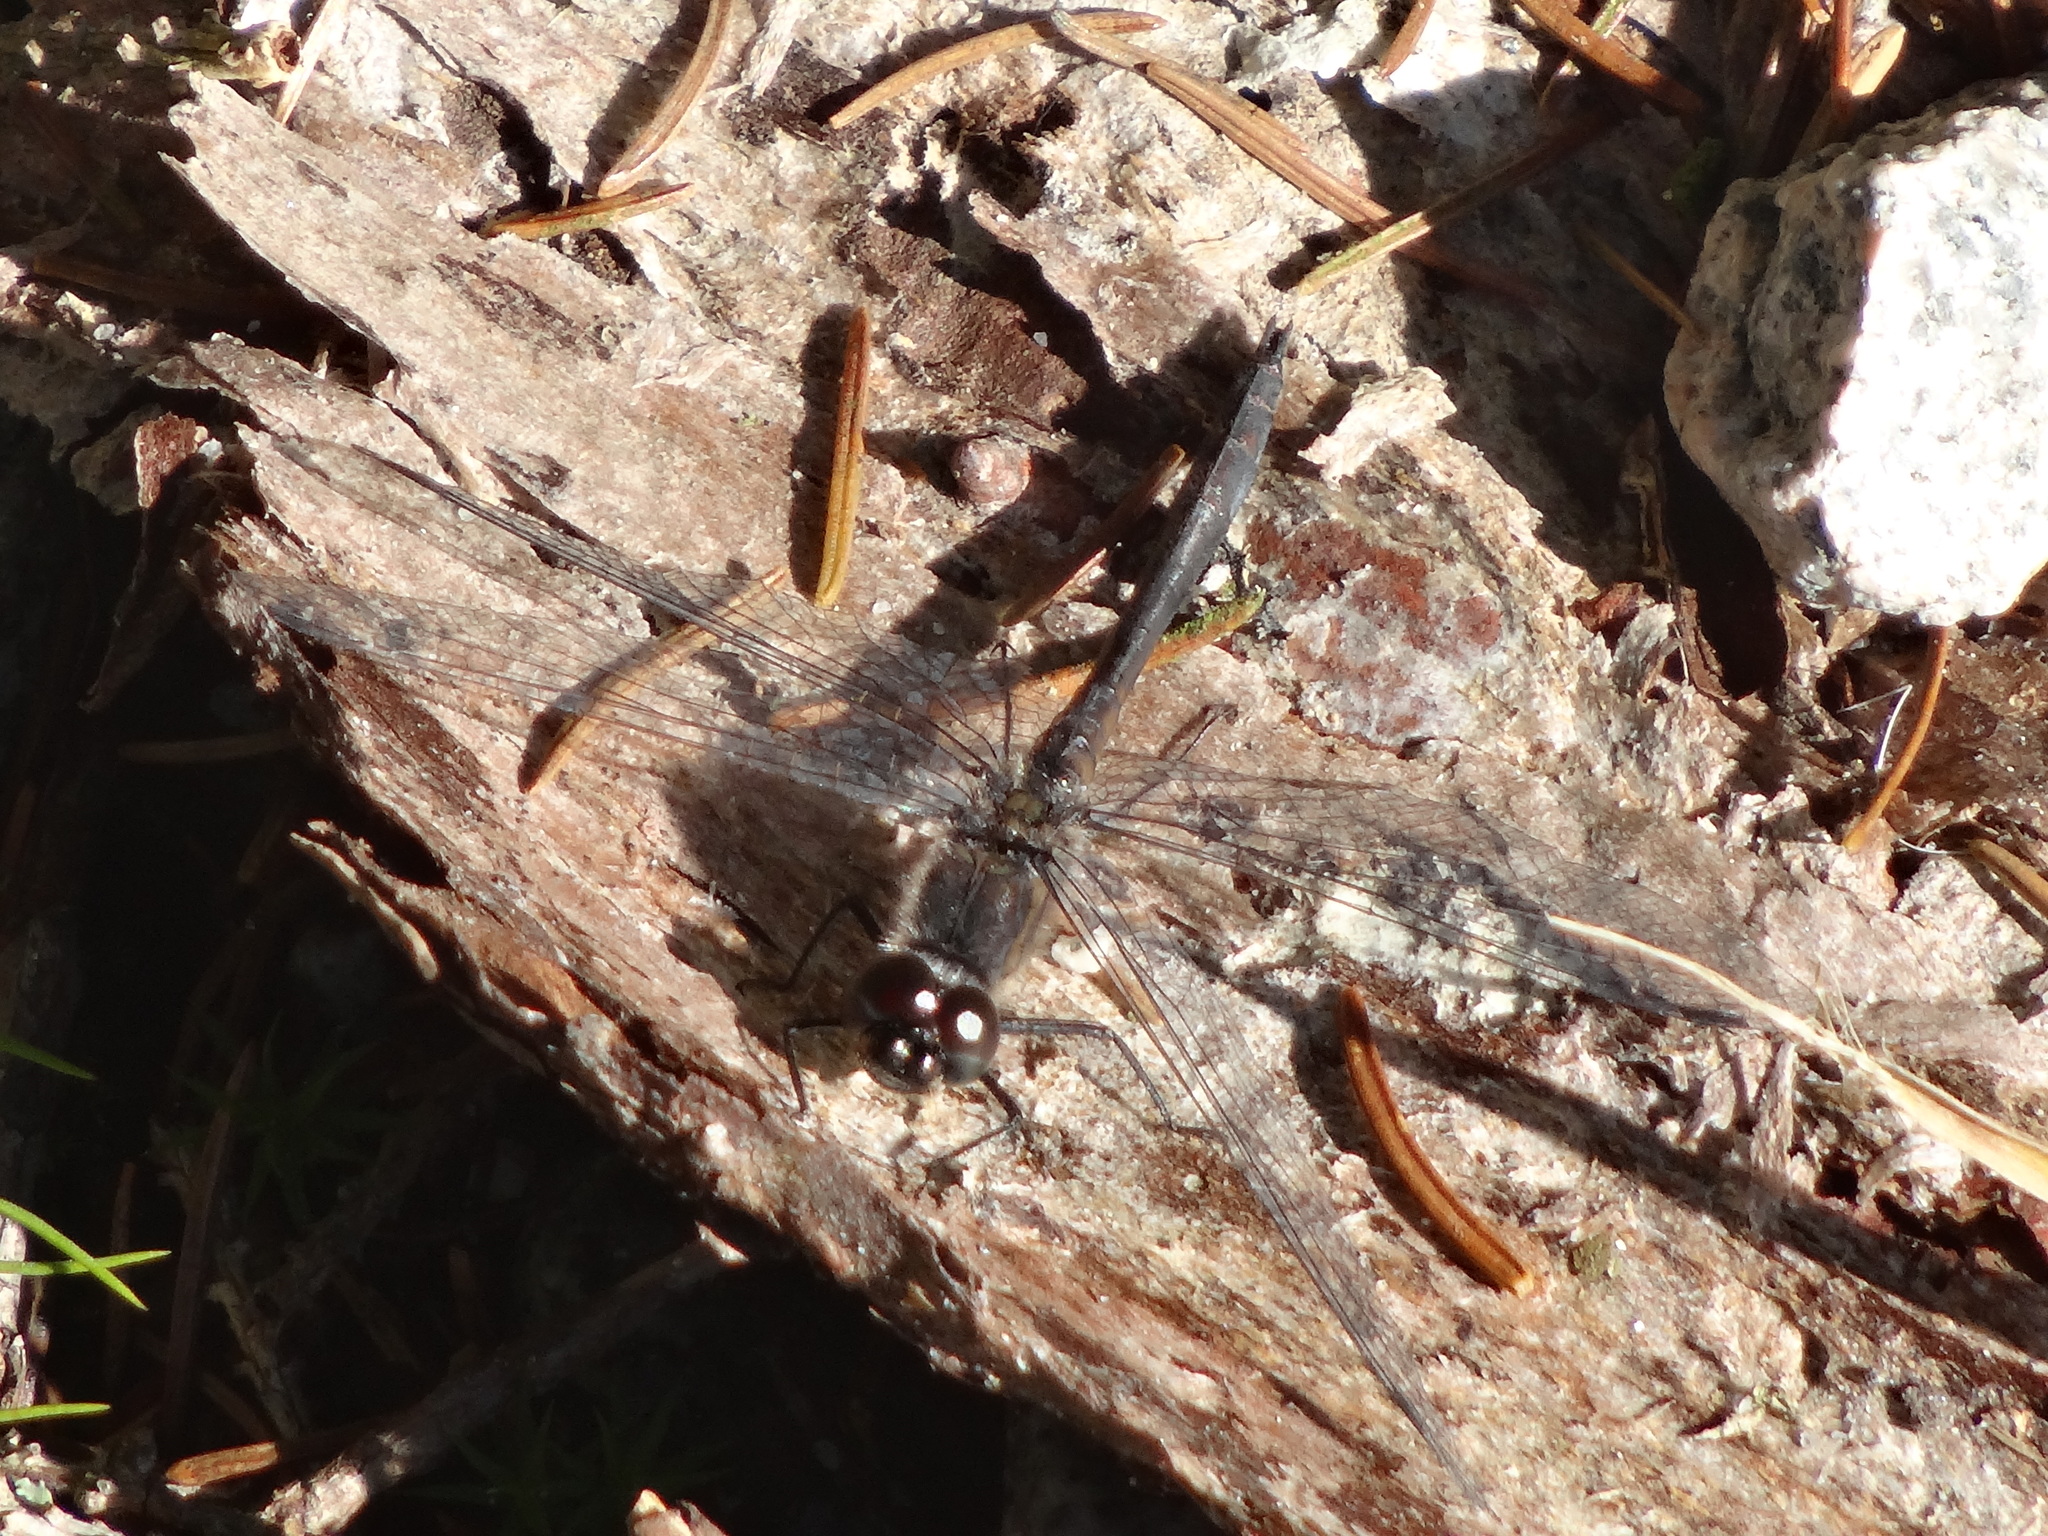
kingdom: Animalia
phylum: Arthropoda
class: Insecta
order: Odonata
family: Libellulidae
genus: Sympetrum
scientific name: Sympetrum danae
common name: Black darter
